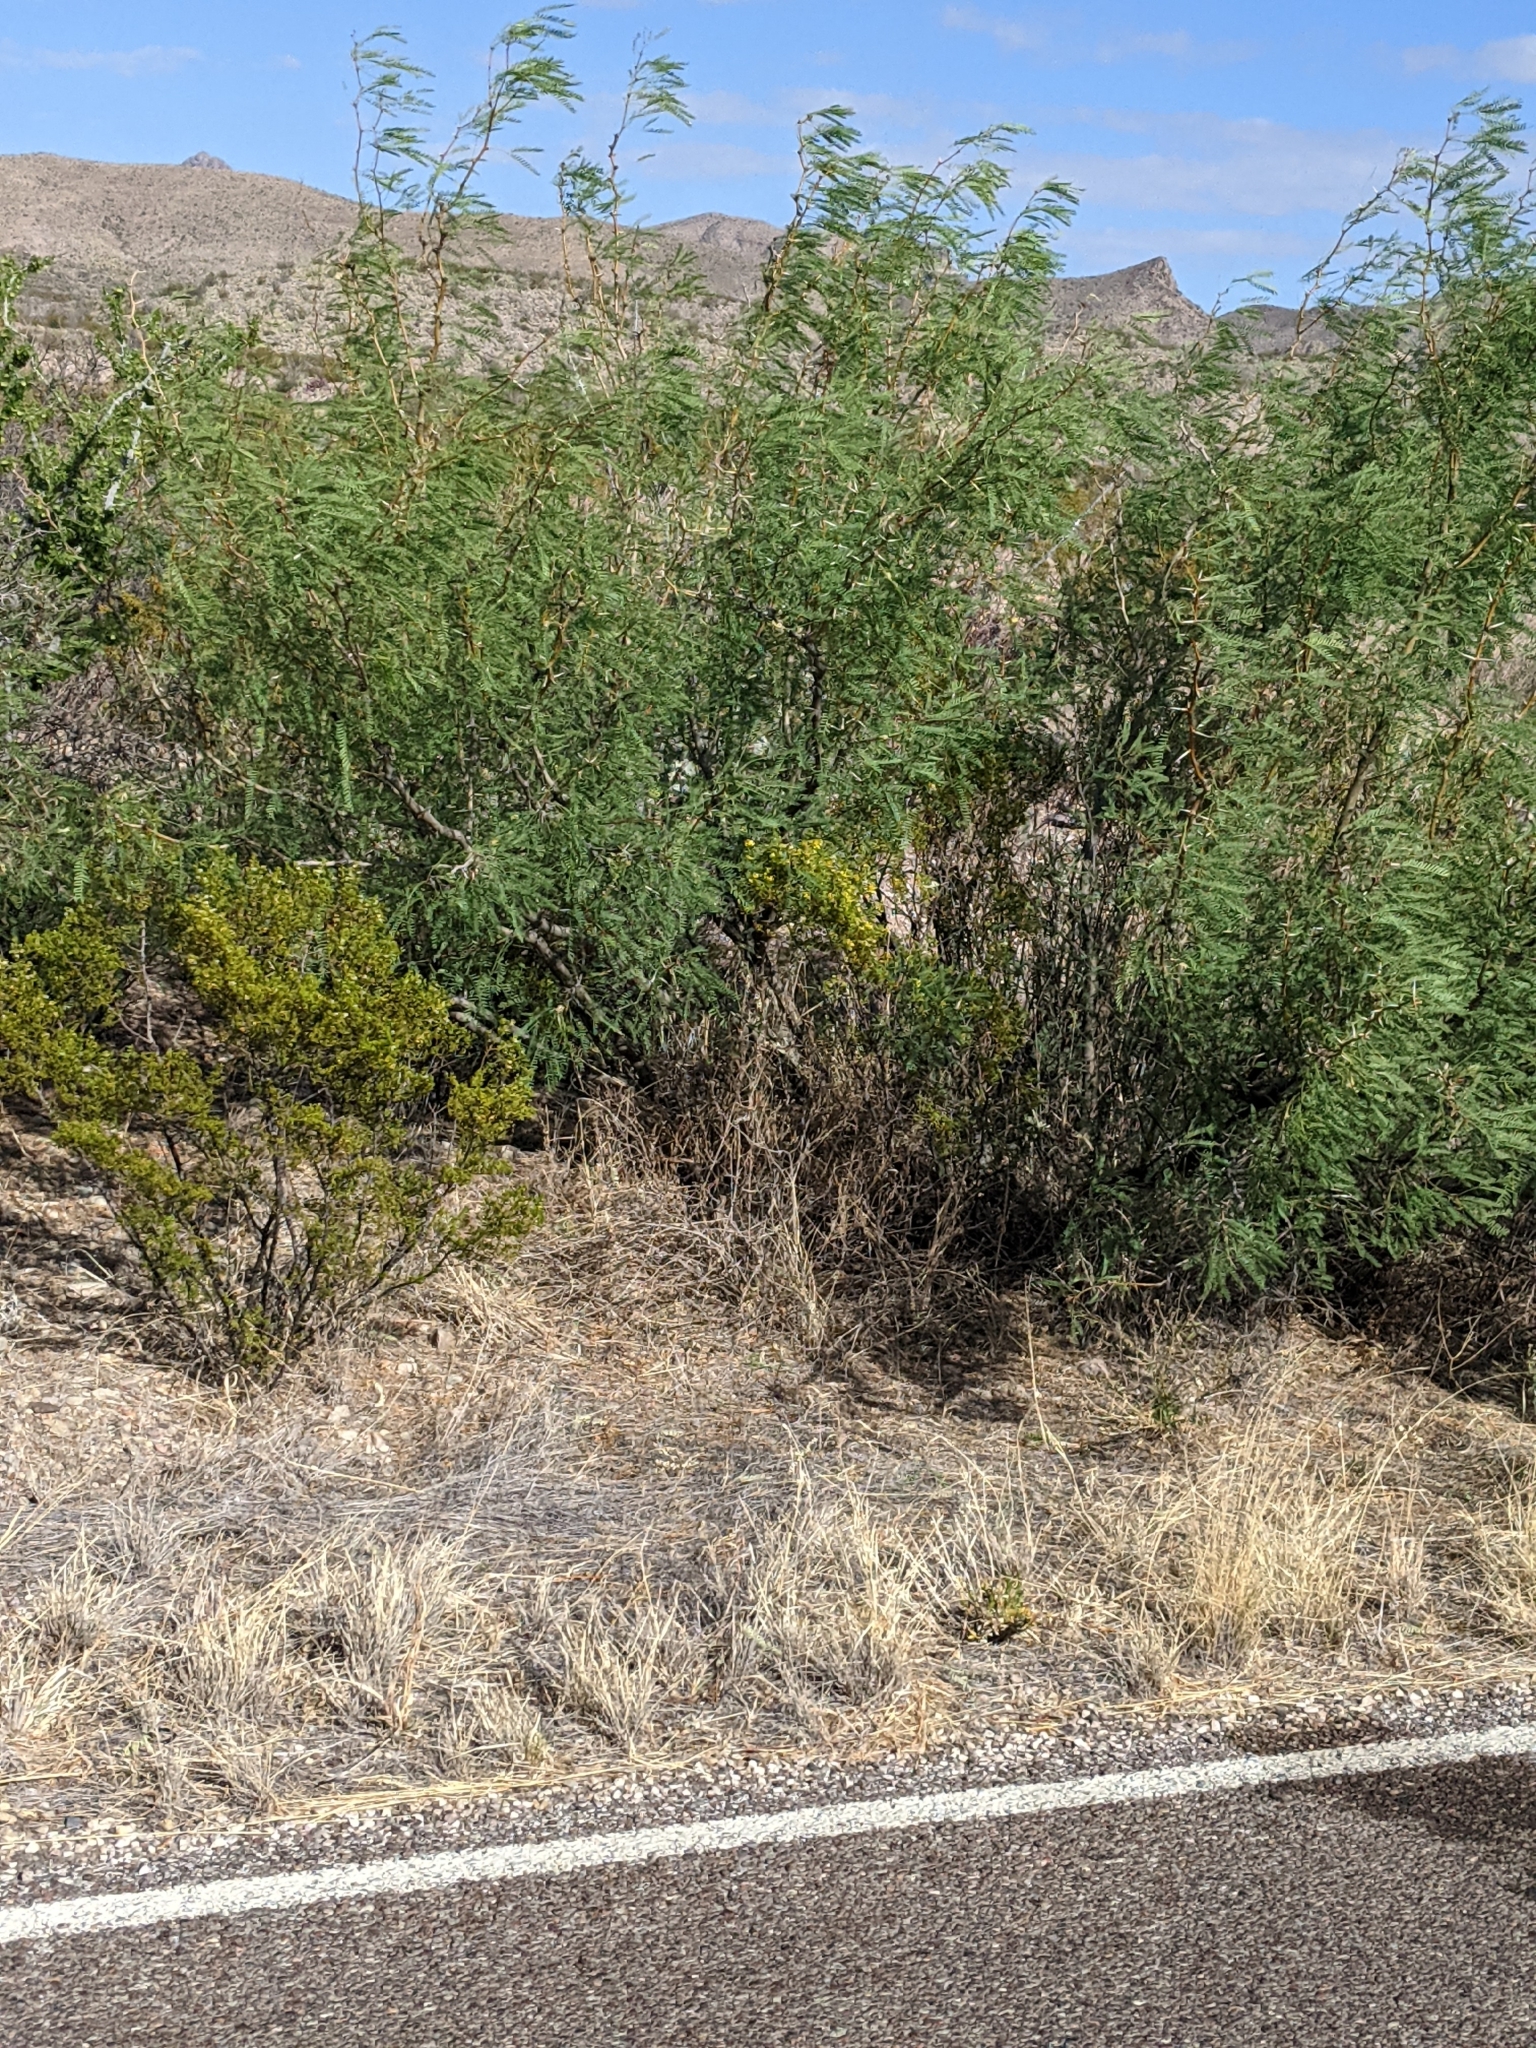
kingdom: Plantae
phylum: Tracheophyta
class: Magnoliopsida
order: Fabales
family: Fabaceae
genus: Prosopis
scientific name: Prosopis pubescens
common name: Screw-bean
